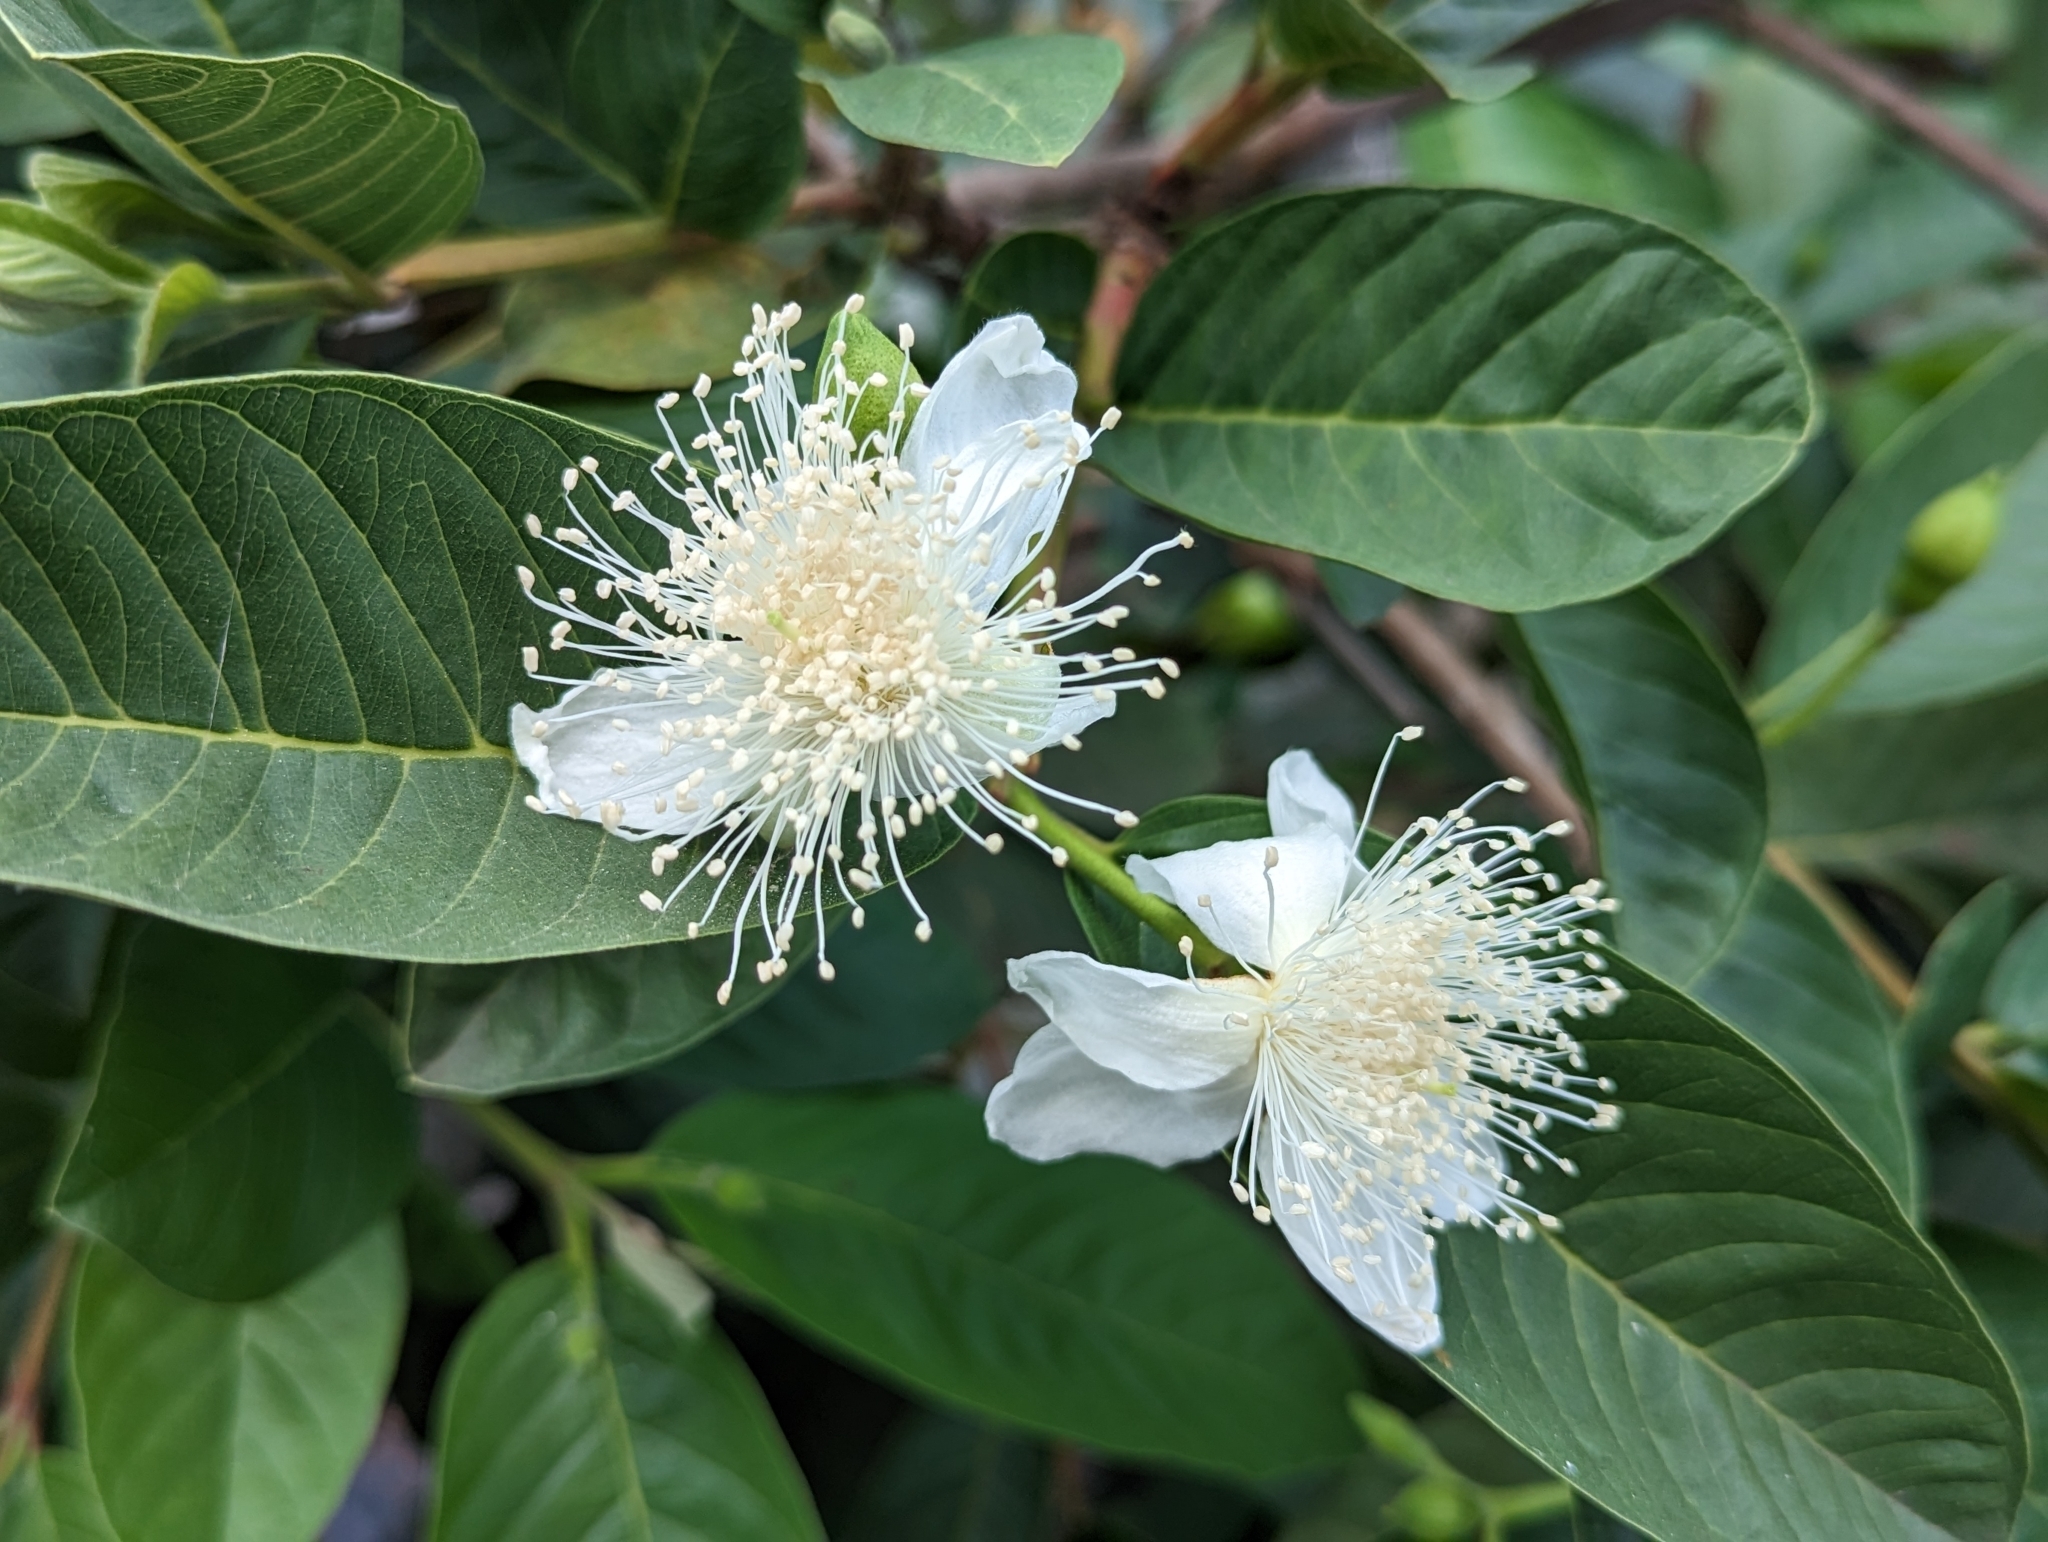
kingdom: Plantae
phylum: Tracheophyta
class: Magnoliopsida
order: Myrtales
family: Myrtaceae
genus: Psidium
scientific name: Psidium guajava
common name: Guava
